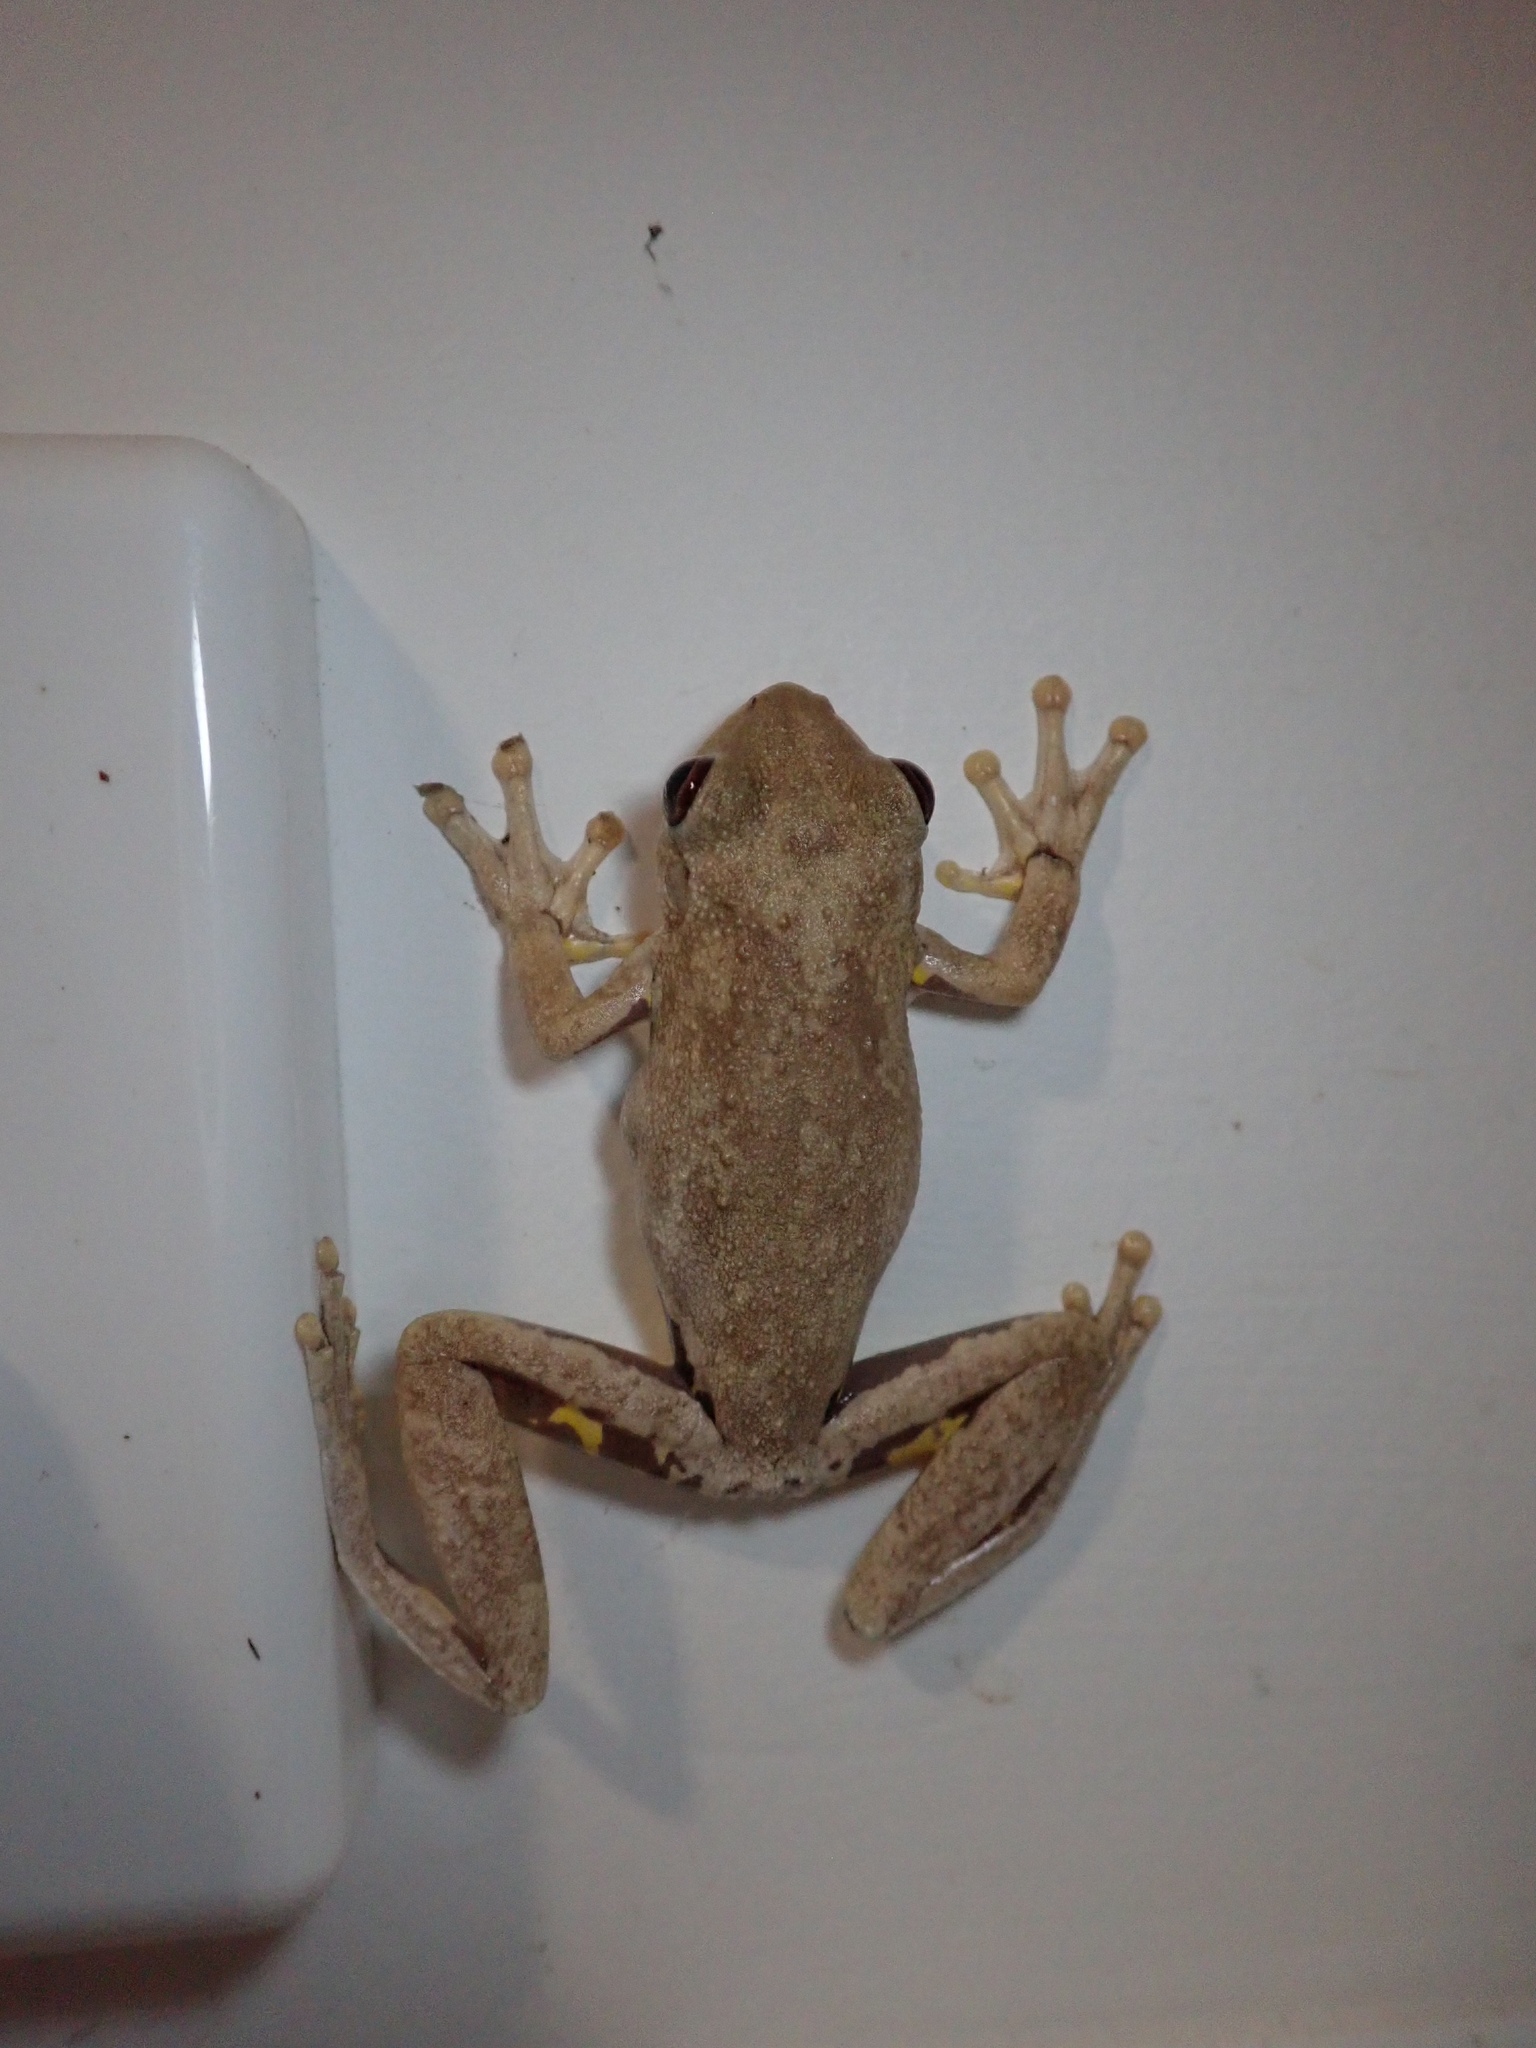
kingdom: Animalia
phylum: Chordata
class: Amphibia
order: Anura
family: Pelodryadidae
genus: Litoria
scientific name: Litoria rothii
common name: Roth’s tree frog
